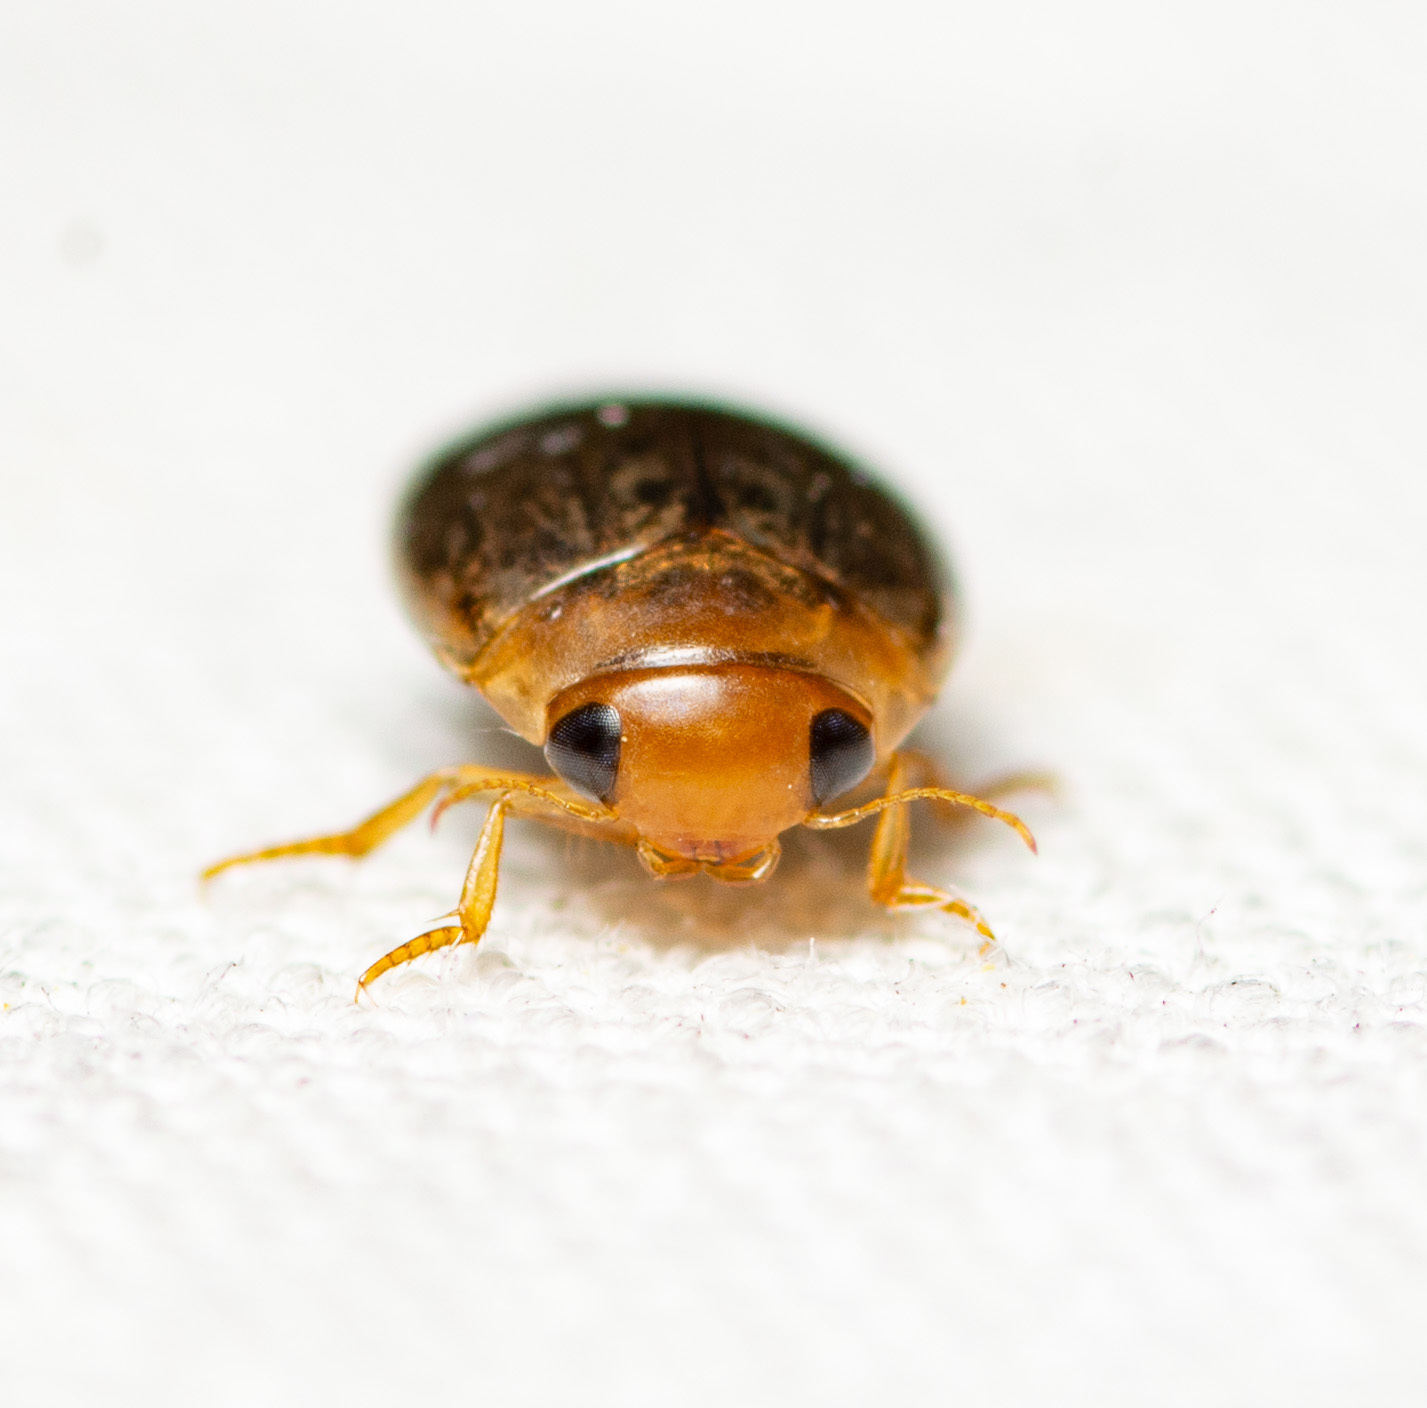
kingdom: Animalia
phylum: Arthropoda
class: Insecta
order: Coleoptera
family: Dytiscidae
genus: Laccophilus
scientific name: Laccophilus proximus
